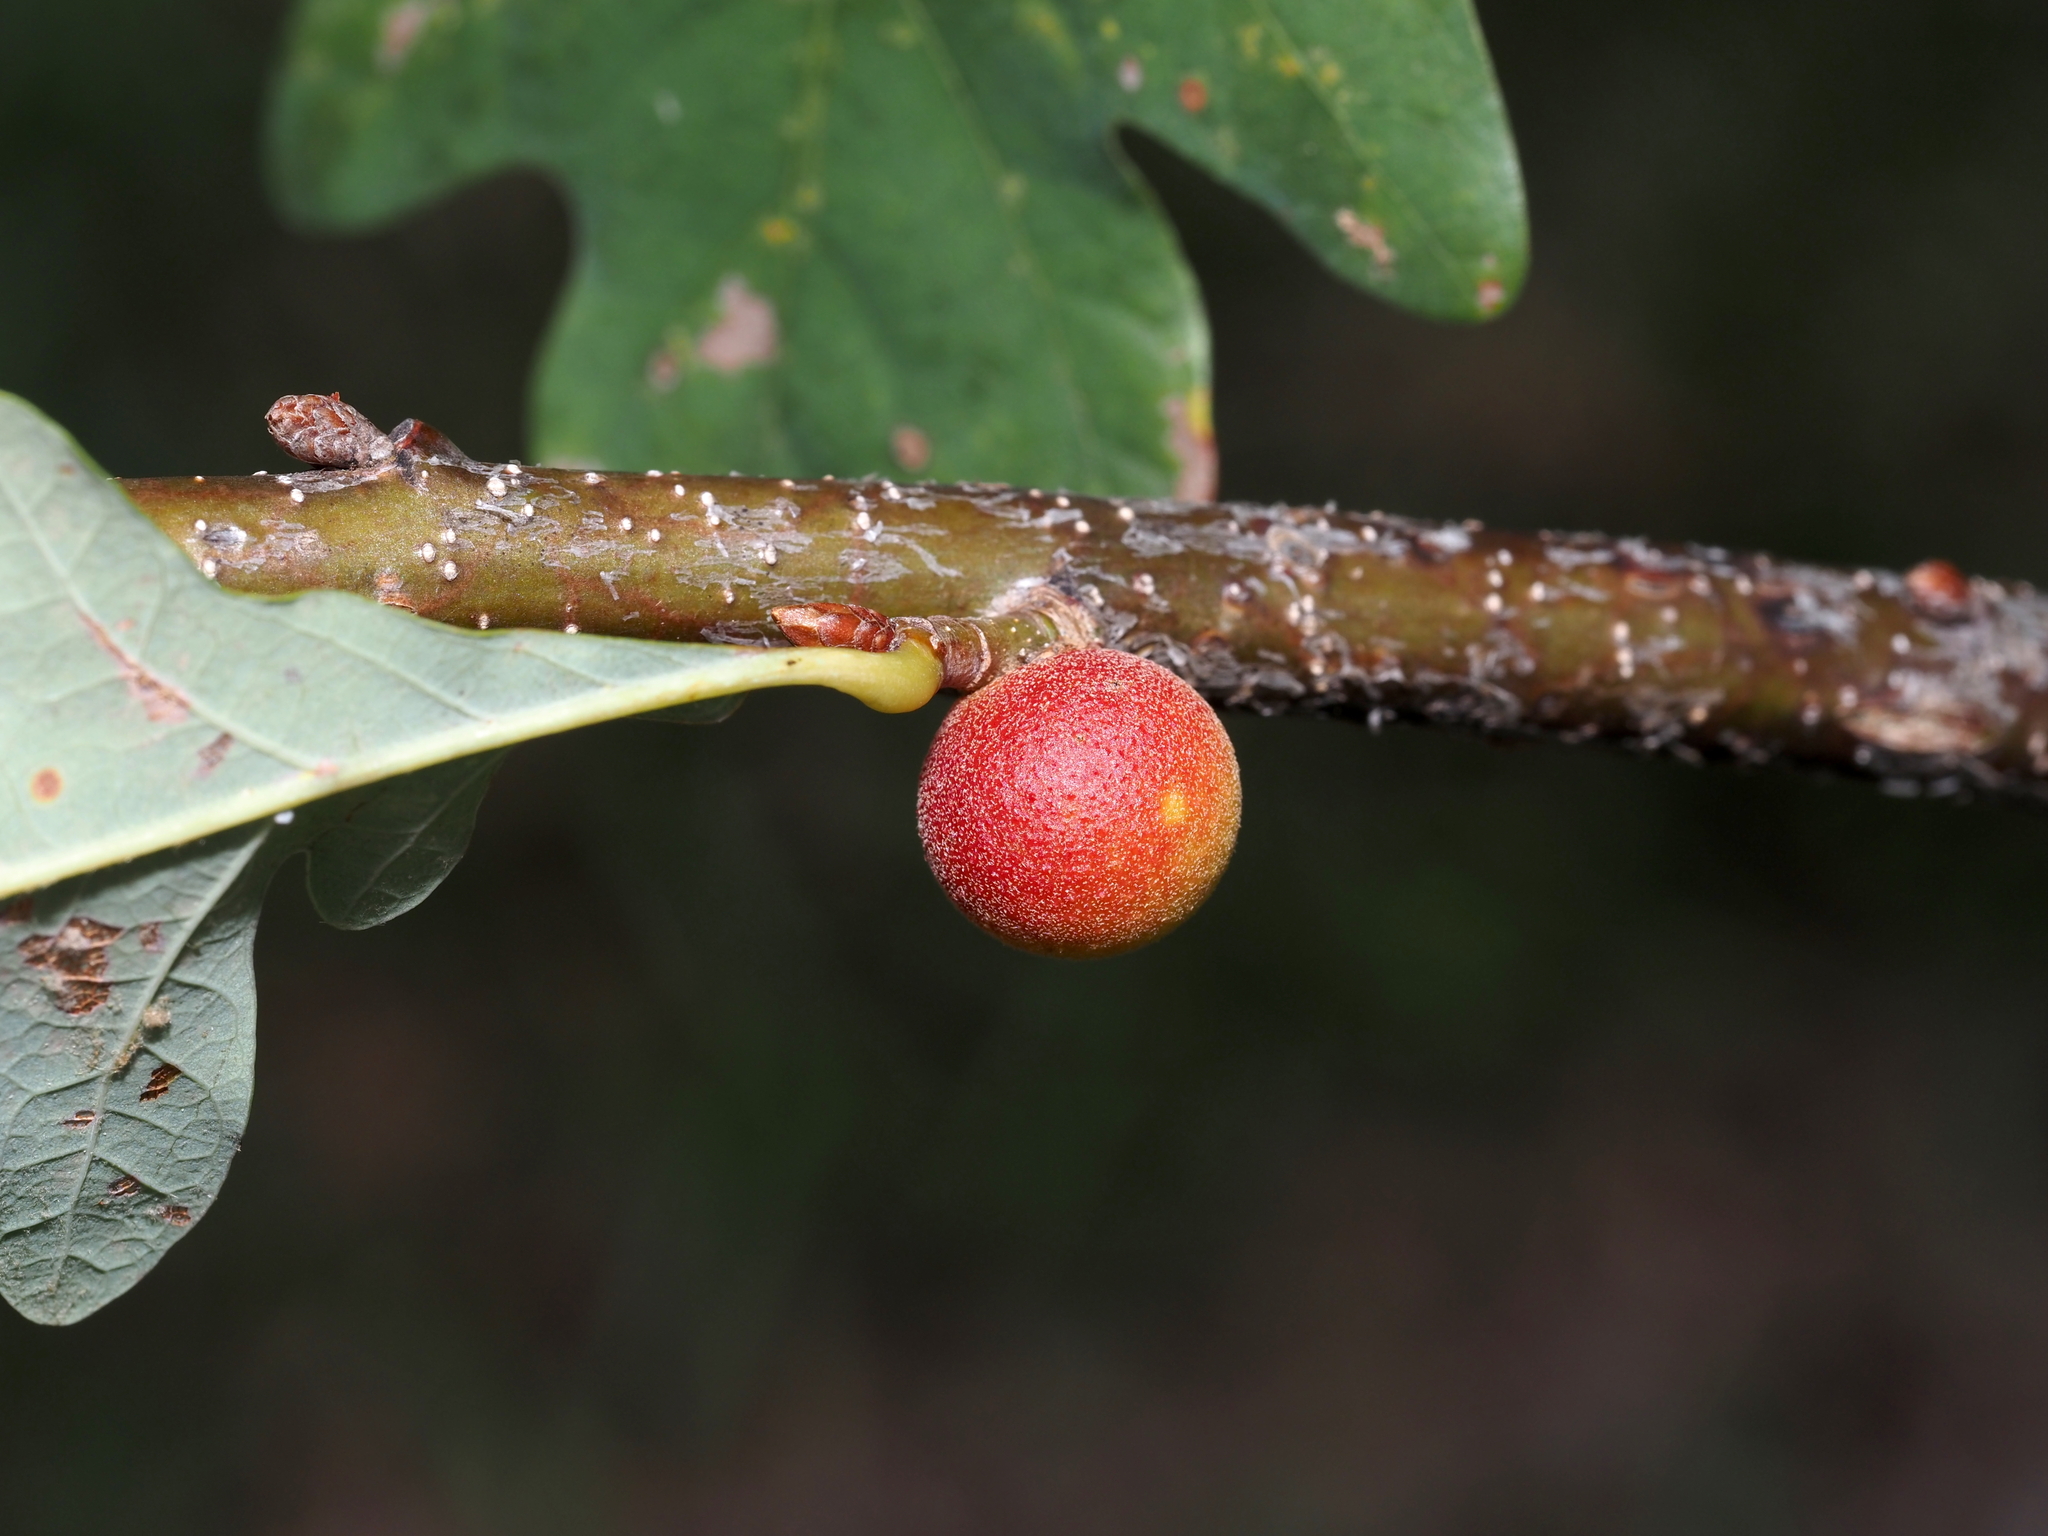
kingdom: Animalia
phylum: Arthropoda
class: Insecta
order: Hymenoptera
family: Cynipidae
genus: Disholcaspis
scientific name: Disholcaspis quercusglobulus
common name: Round bullet gall wasp
